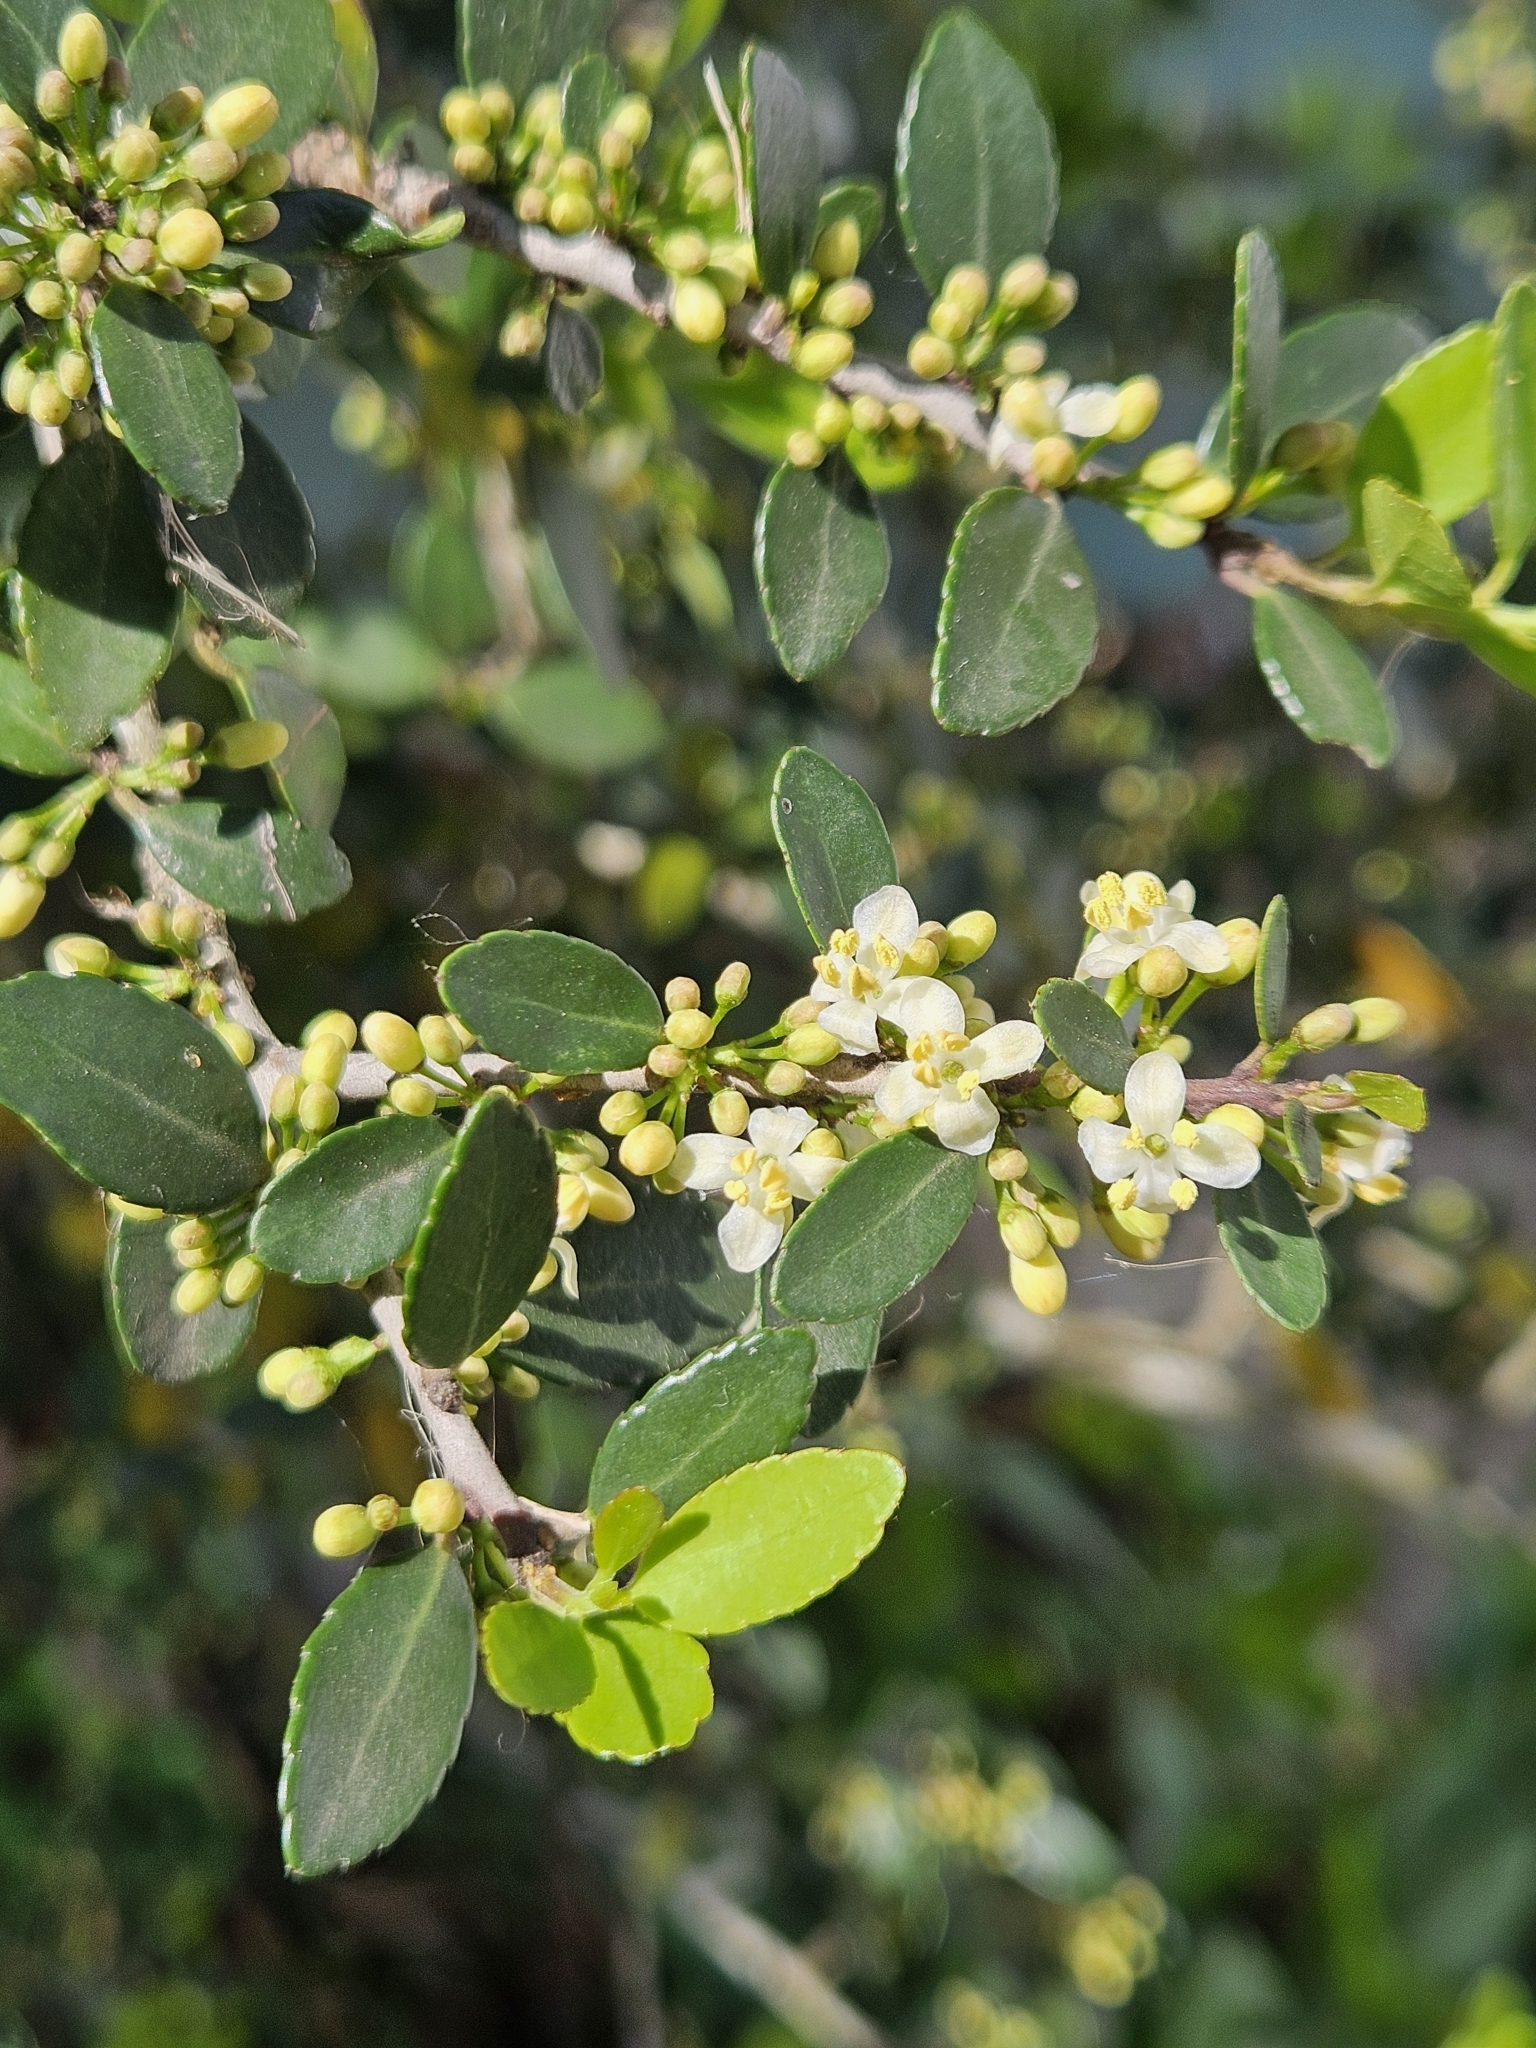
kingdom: Plantae
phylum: Tracheophyta
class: Magnoliopsida
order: Aquifoliales
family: Aquifoliaceae
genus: Ilex
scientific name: Ilex vomitoria
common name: Yaupon holly
